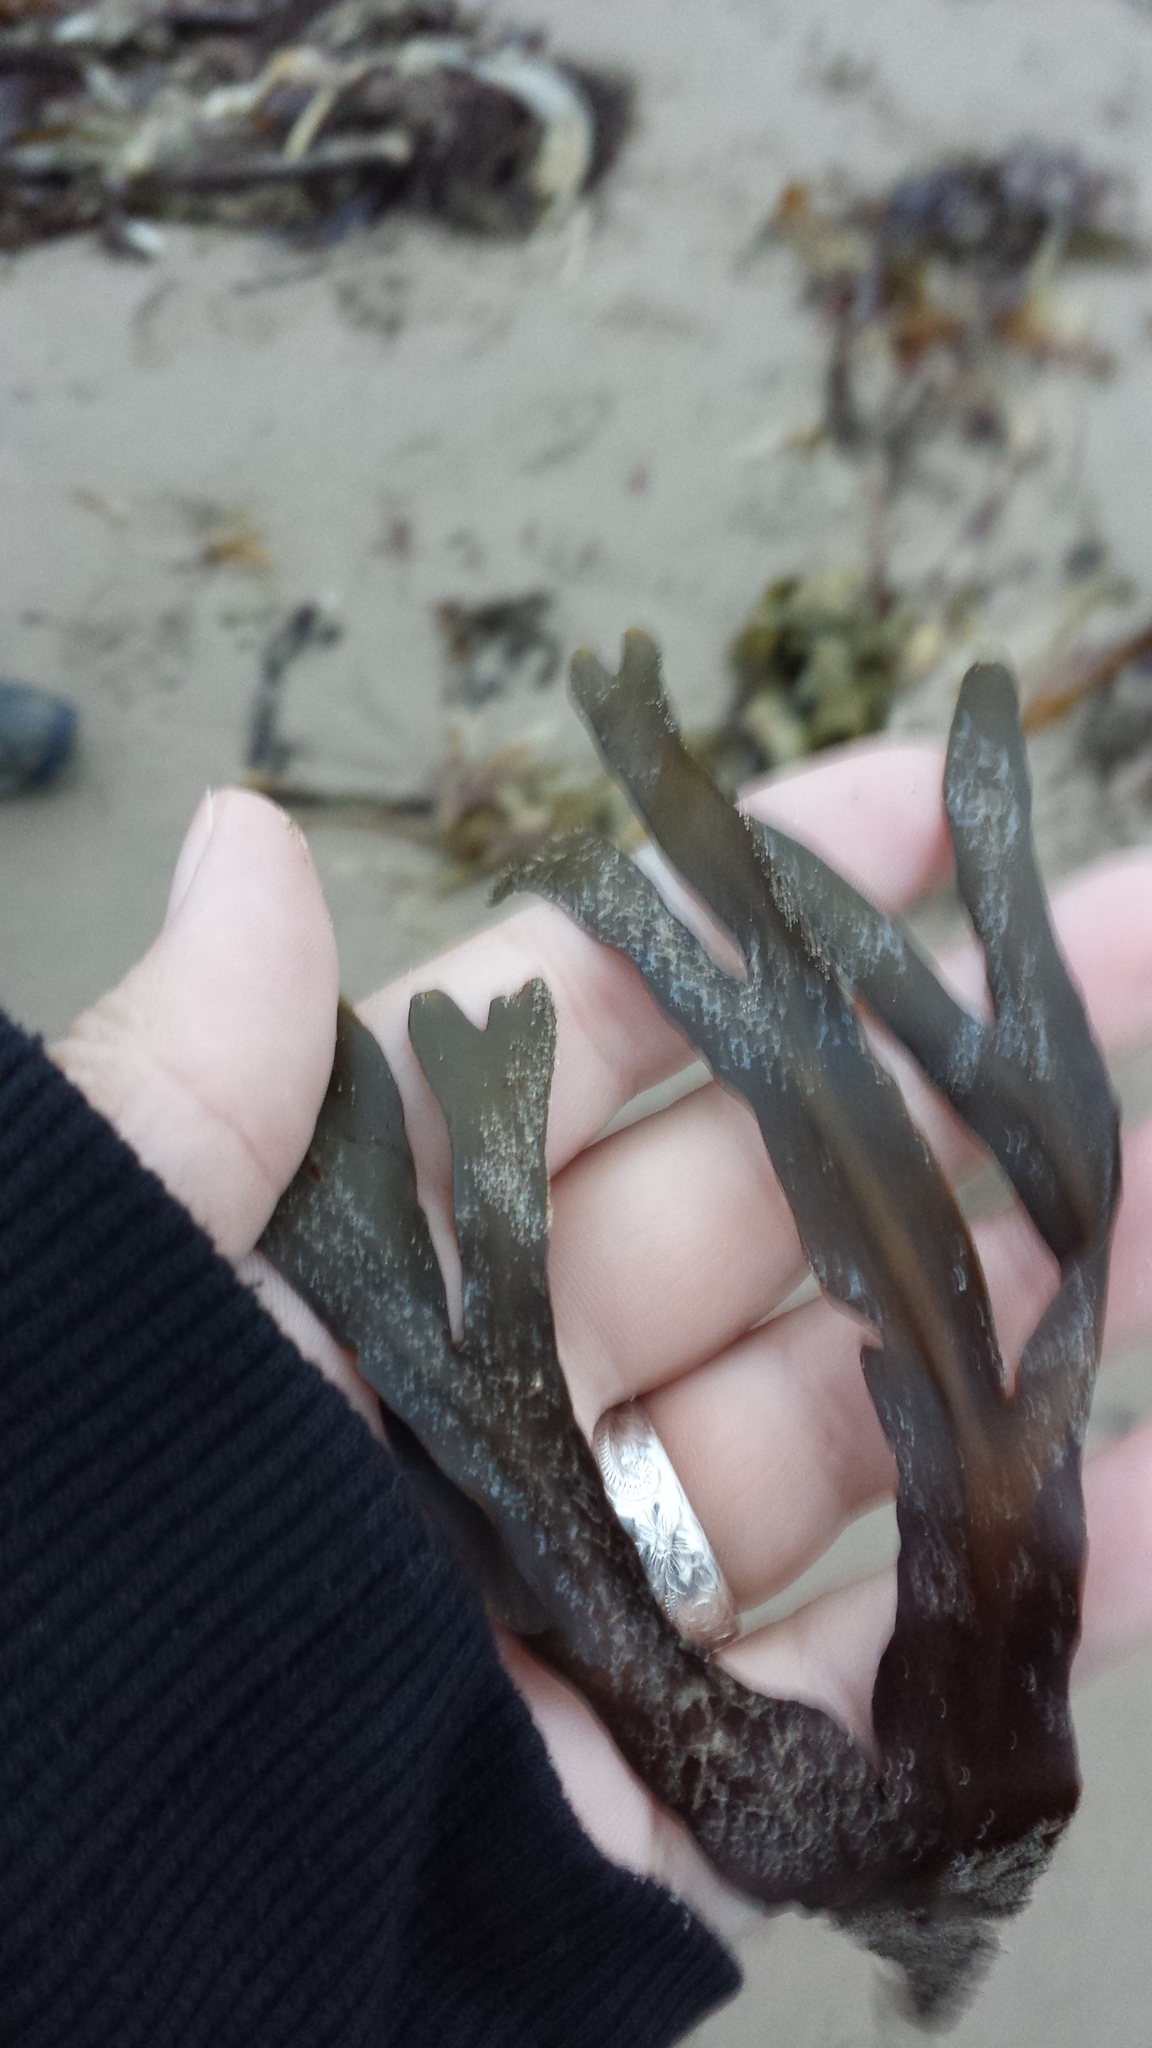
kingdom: Chromista
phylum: Ochrophyta
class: Phaeophyceae
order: Fucales
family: Fucaceae
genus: Fucus
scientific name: Fucus distichus
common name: Rockweed
